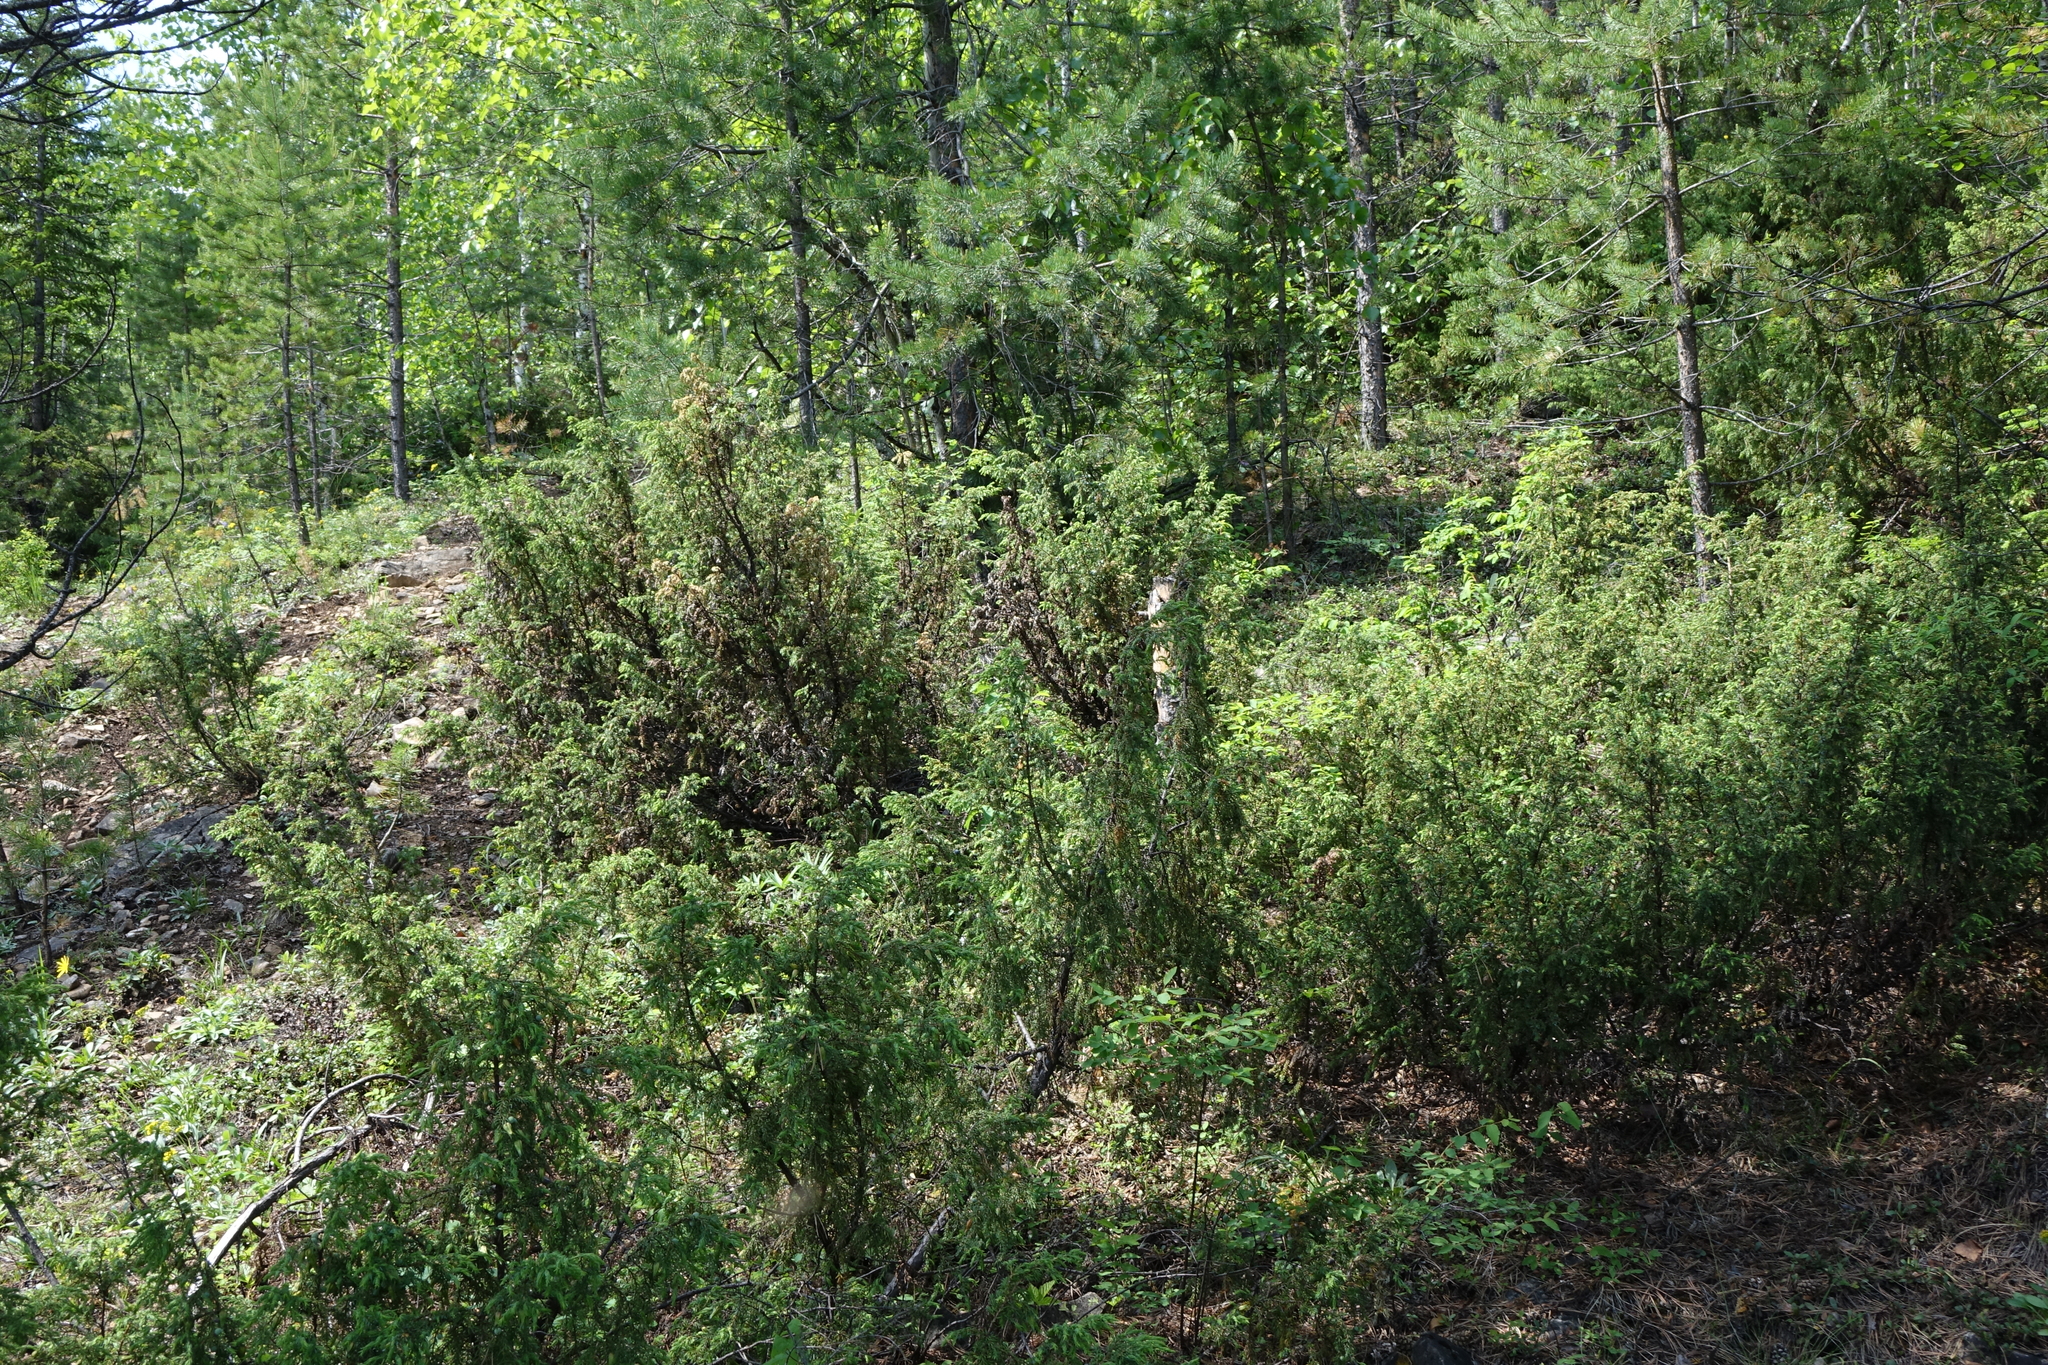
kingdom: Plantae
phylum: Tracheophyta
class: Pinopsida
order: Pinales
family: Cupressaceae
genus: Juniperus
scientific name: Juniperus communis
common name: Common juniper
